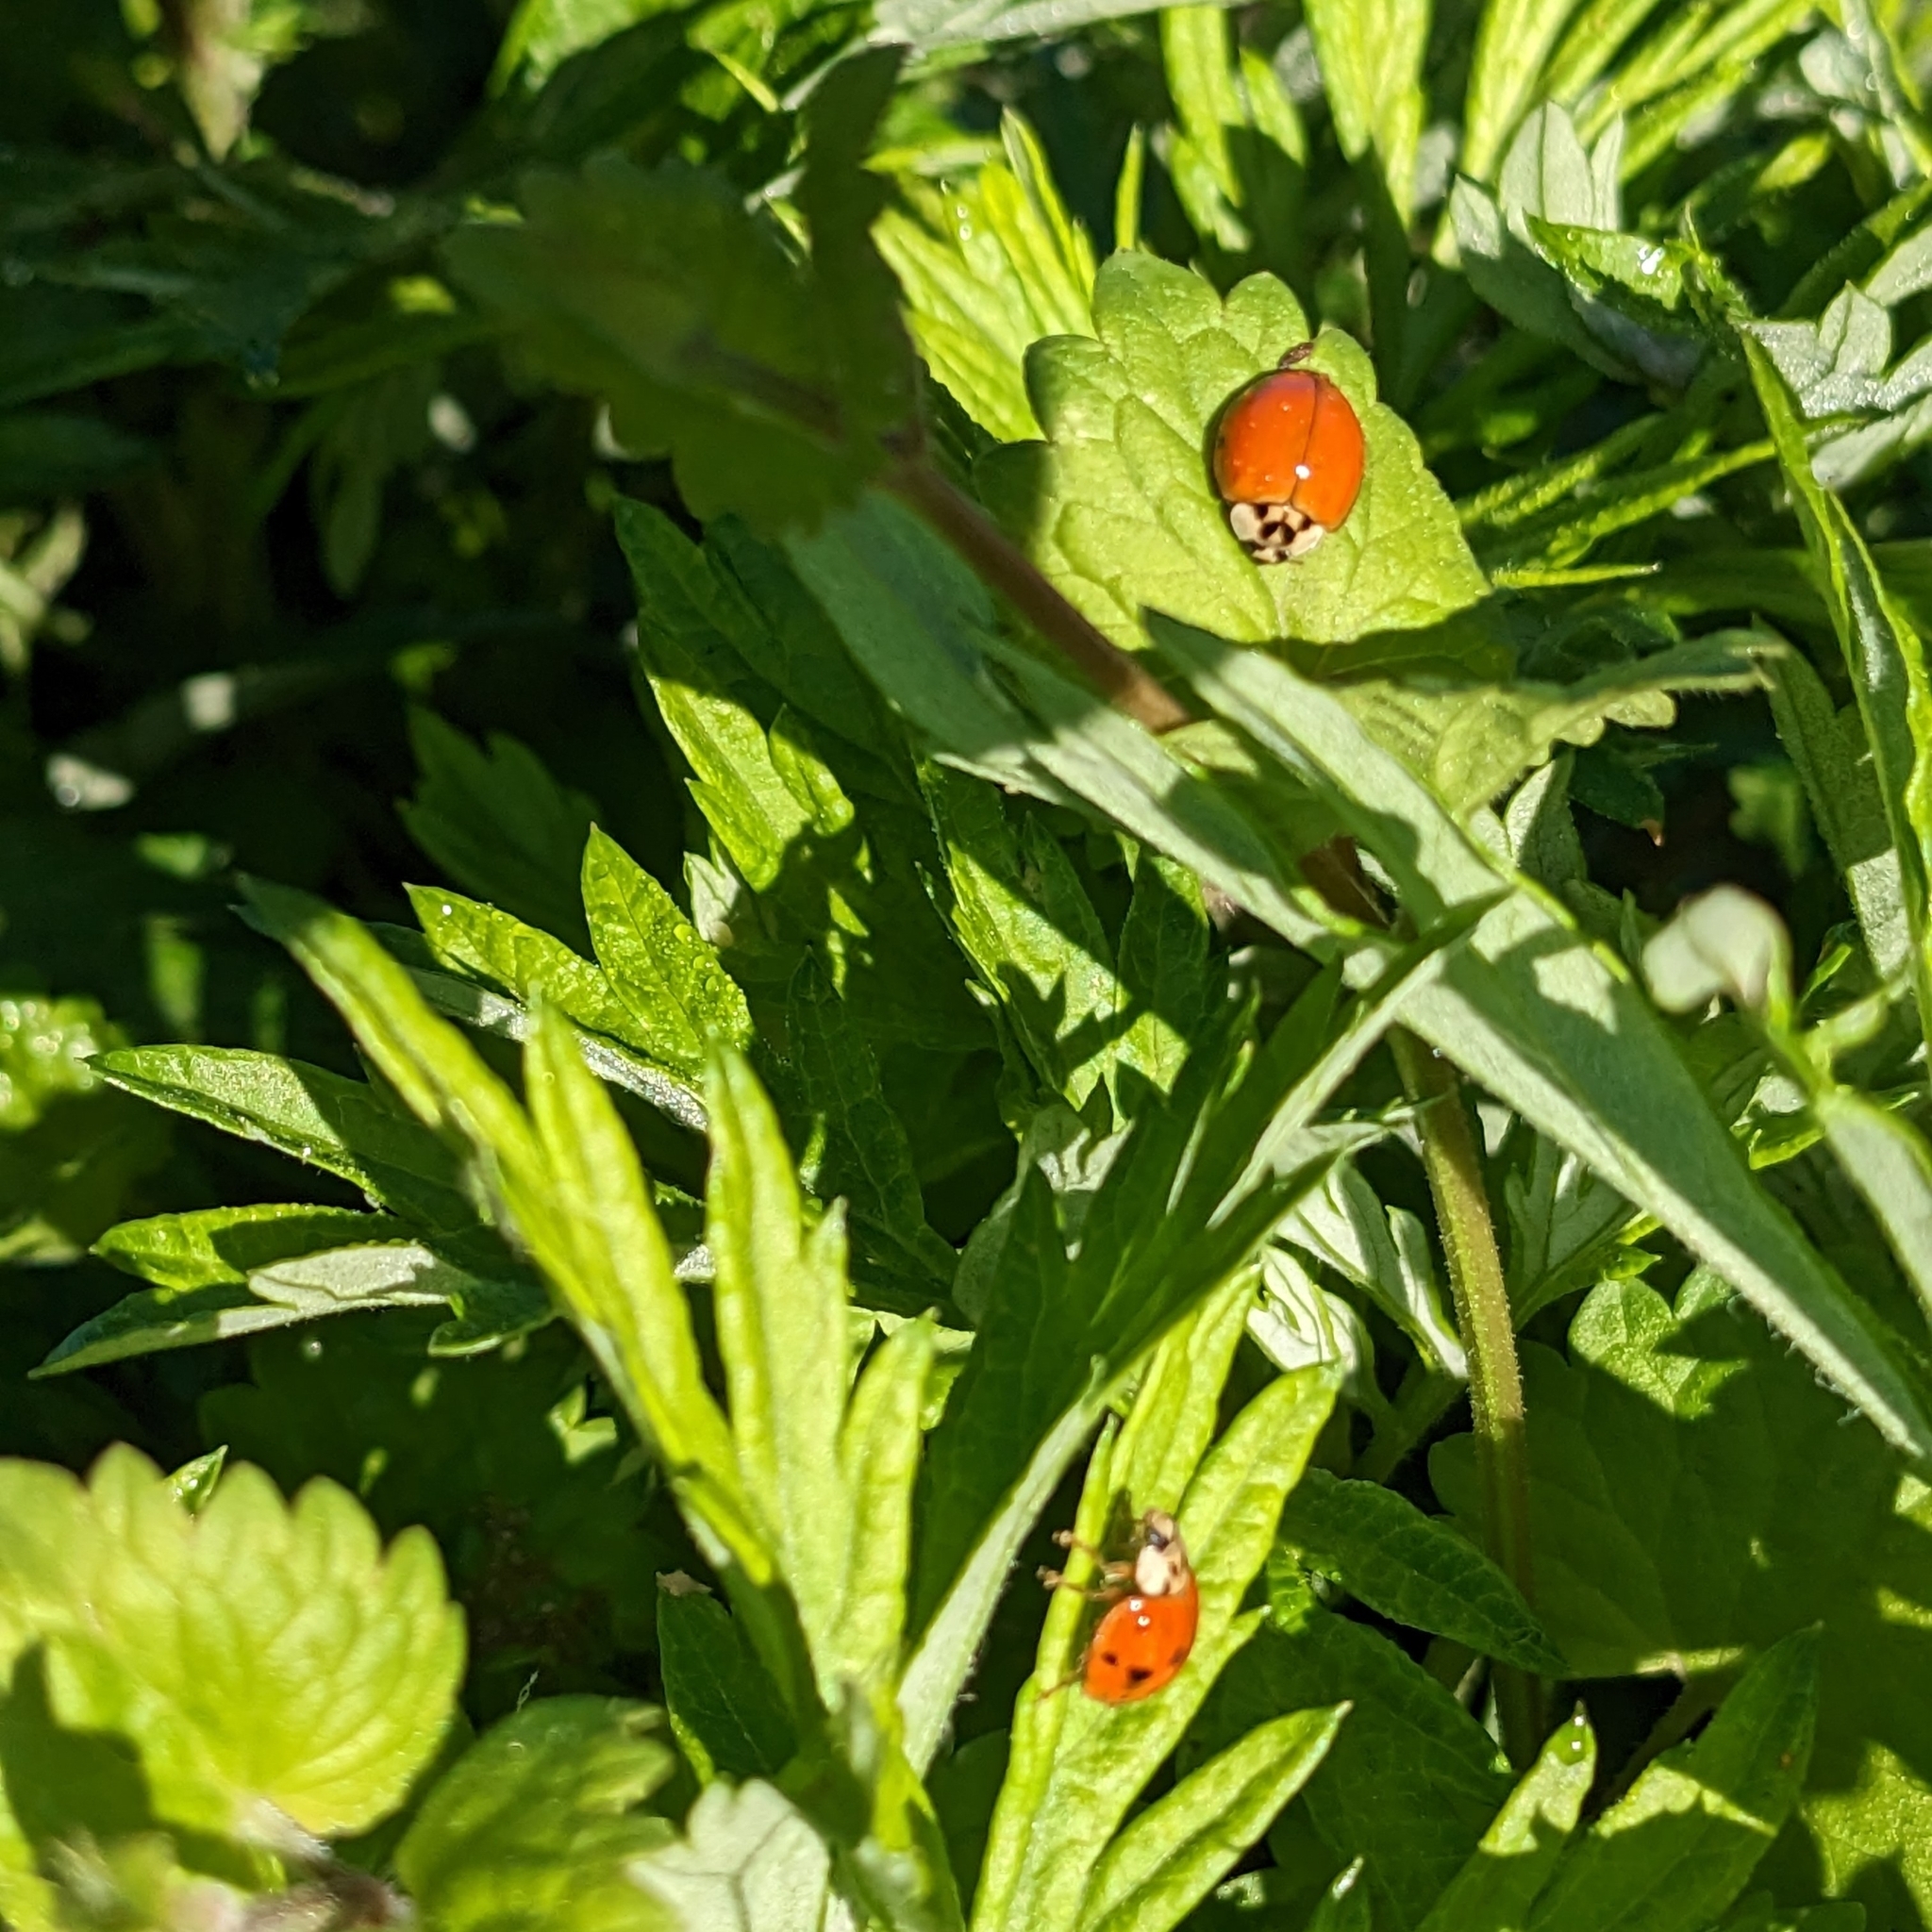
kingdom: Animalia
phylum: Arthropoda
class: Insecta
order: Coleoptera
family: Coccinellidae
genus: Harmonia
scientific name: Harmonia axyridis
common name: Harlequin ladybird
